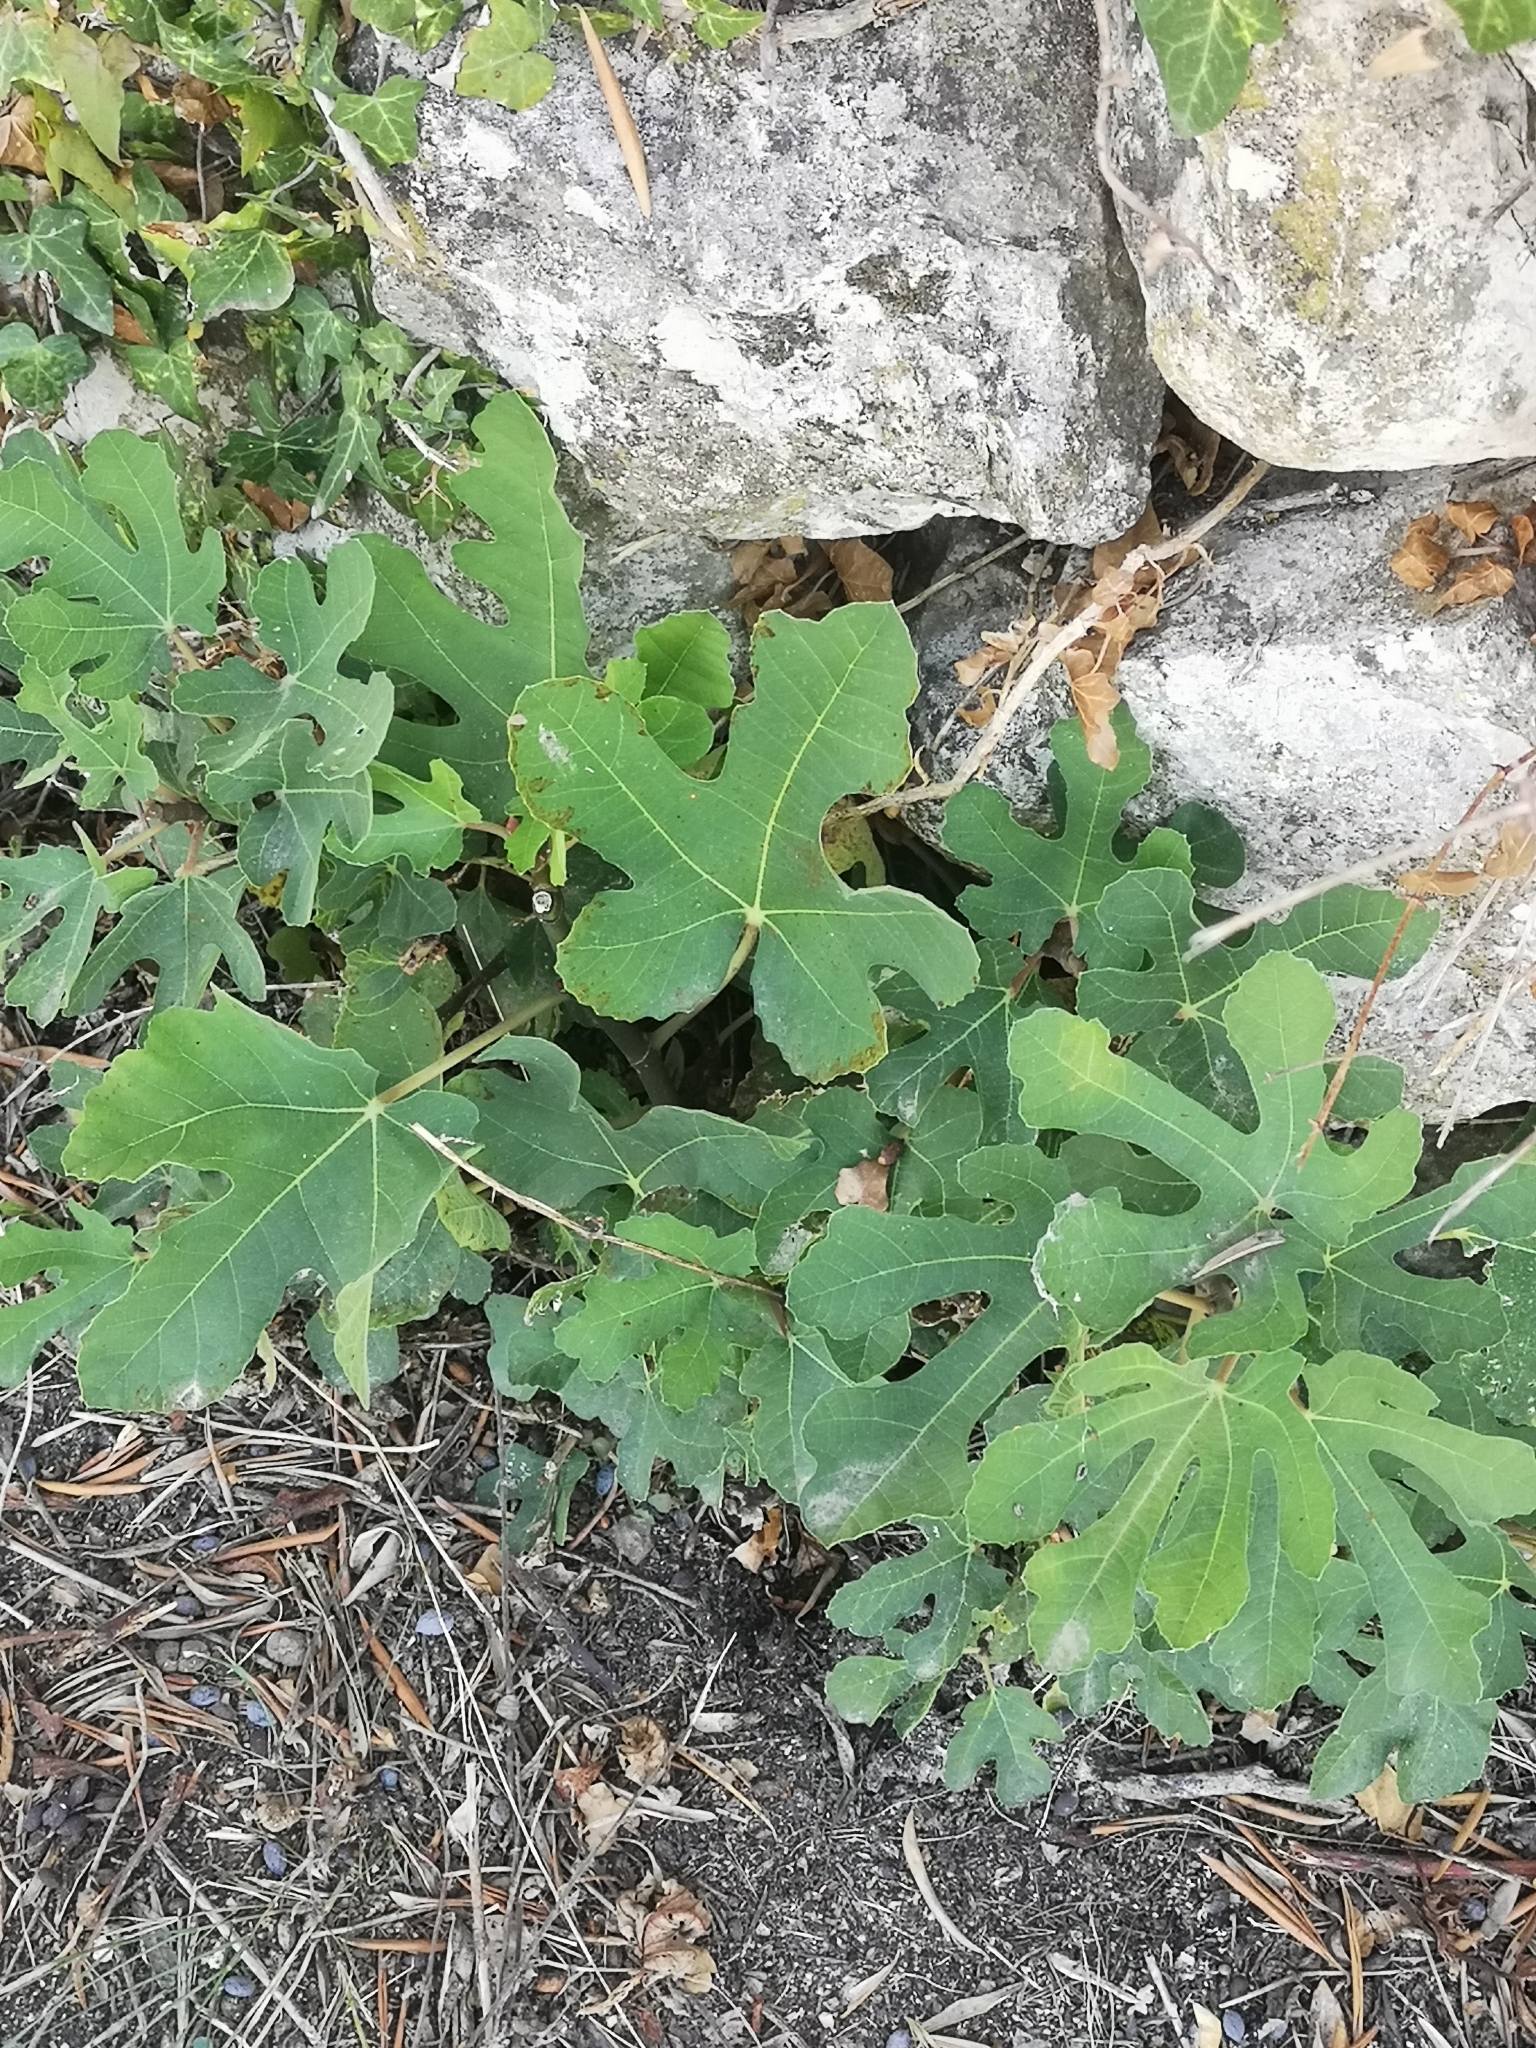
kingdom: Plantae
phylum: Tracheophyta
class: Magnoliopsida
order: Rosales
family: Moraceae
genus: Ficus
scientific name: Ficus carica
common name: Fig
